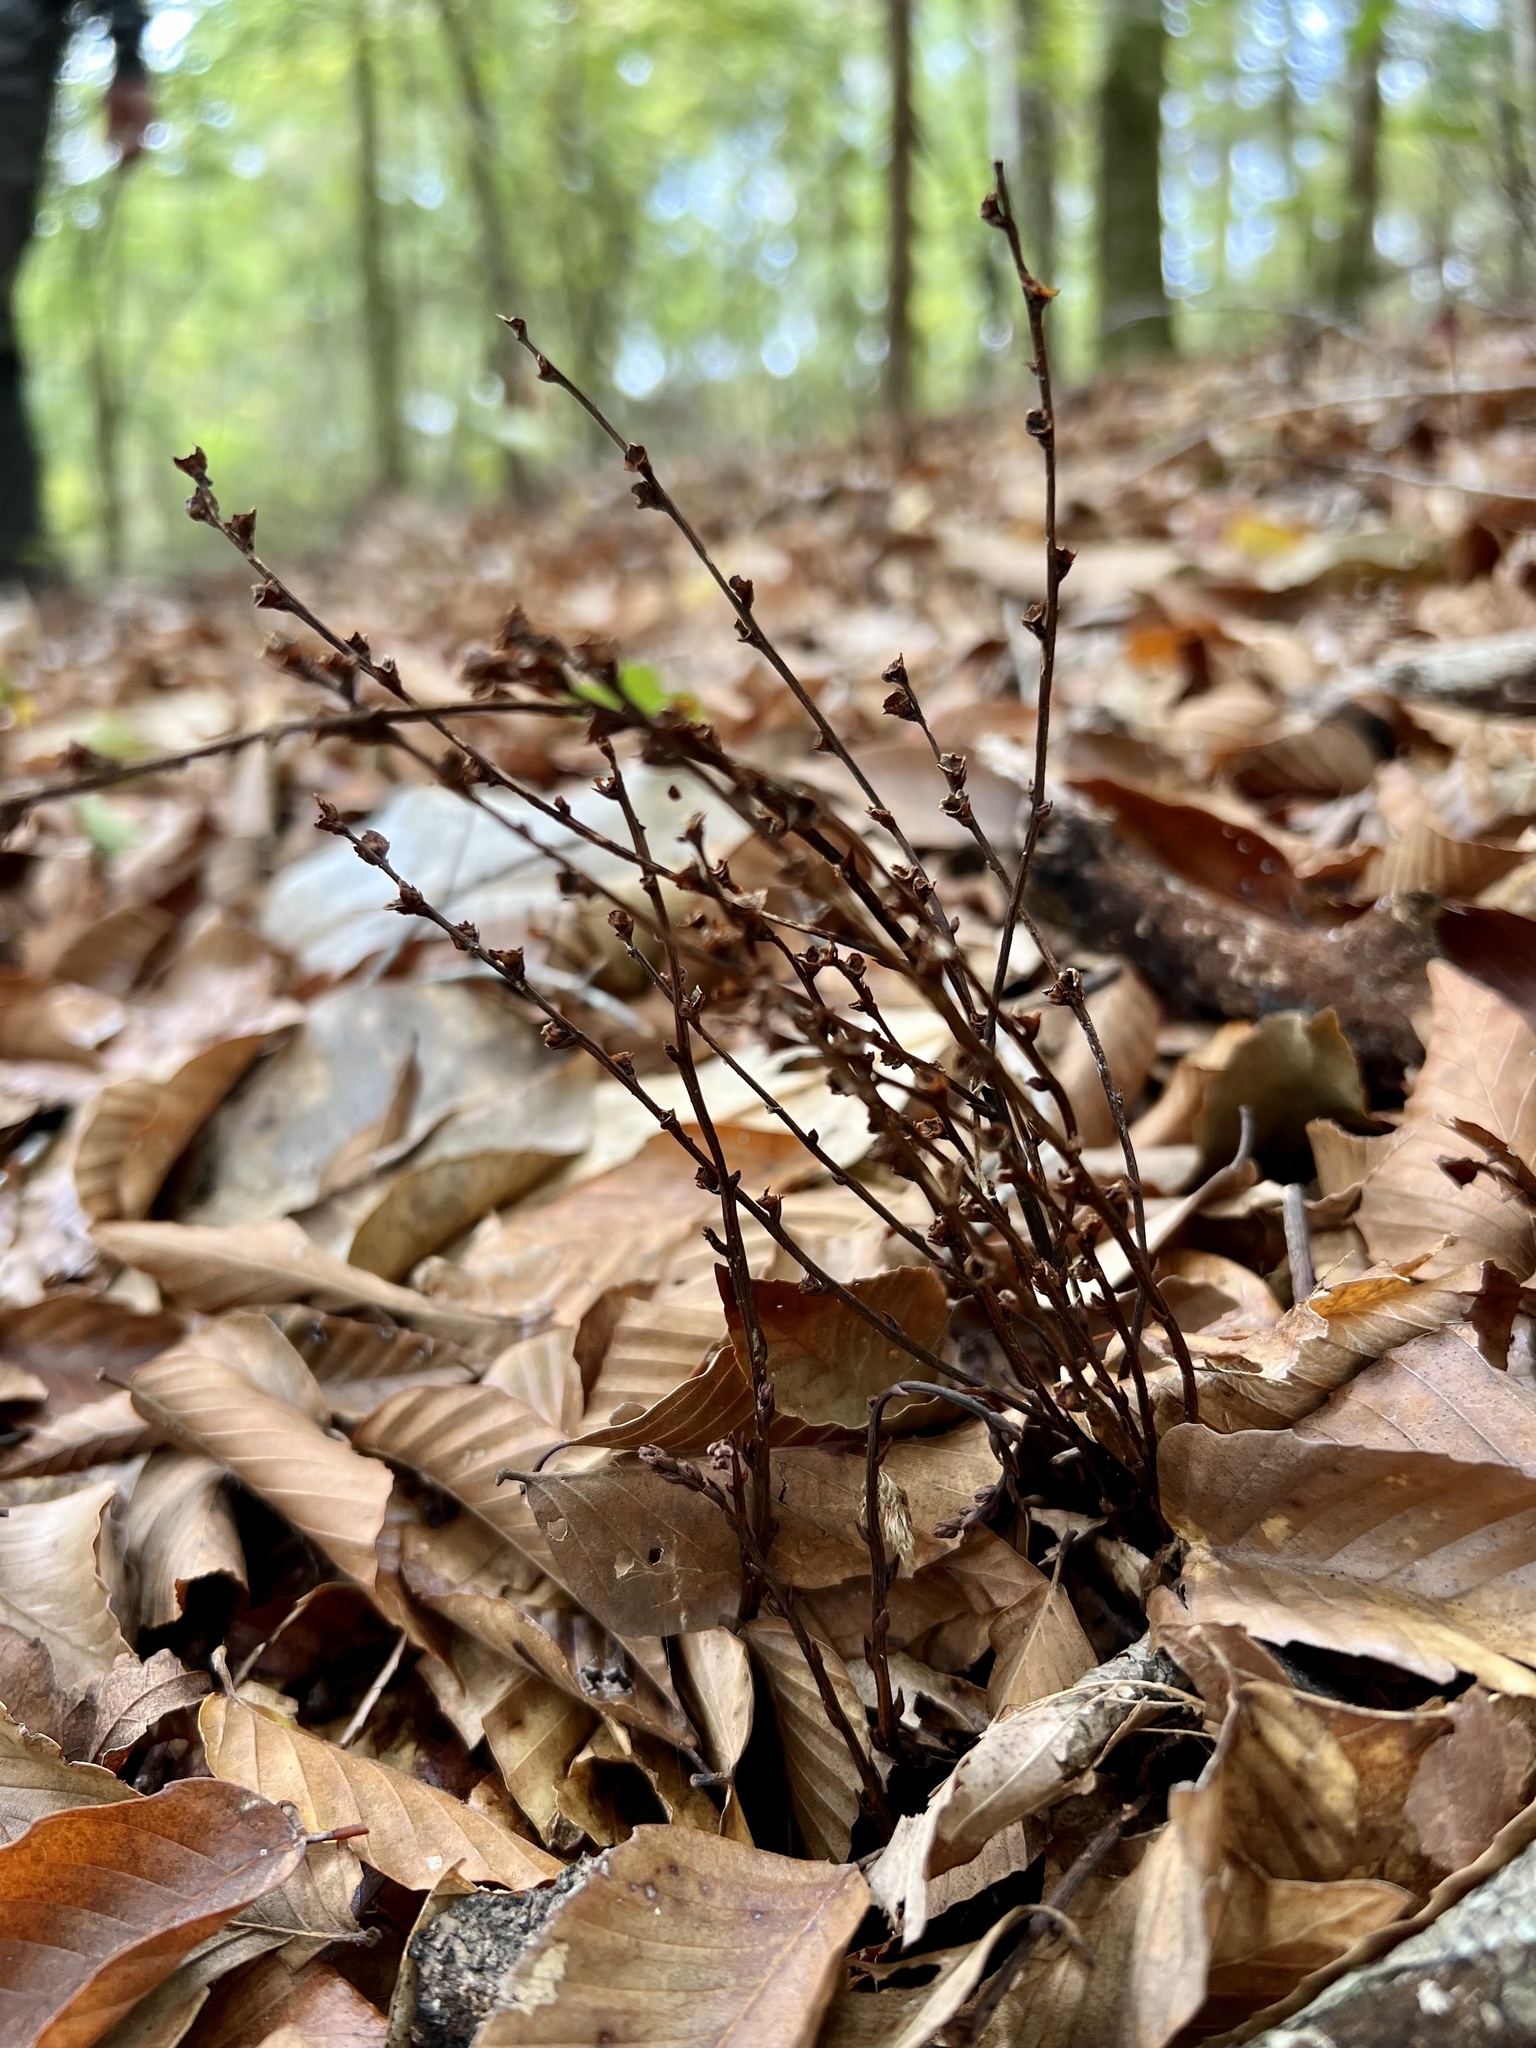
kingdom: Plantae
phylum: Tracheophyta
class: Magnoliopsida
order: Lamiales
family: Orobanchaceae
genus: Epifagus
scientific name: Epifagus virginiana
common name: Beechdrops
